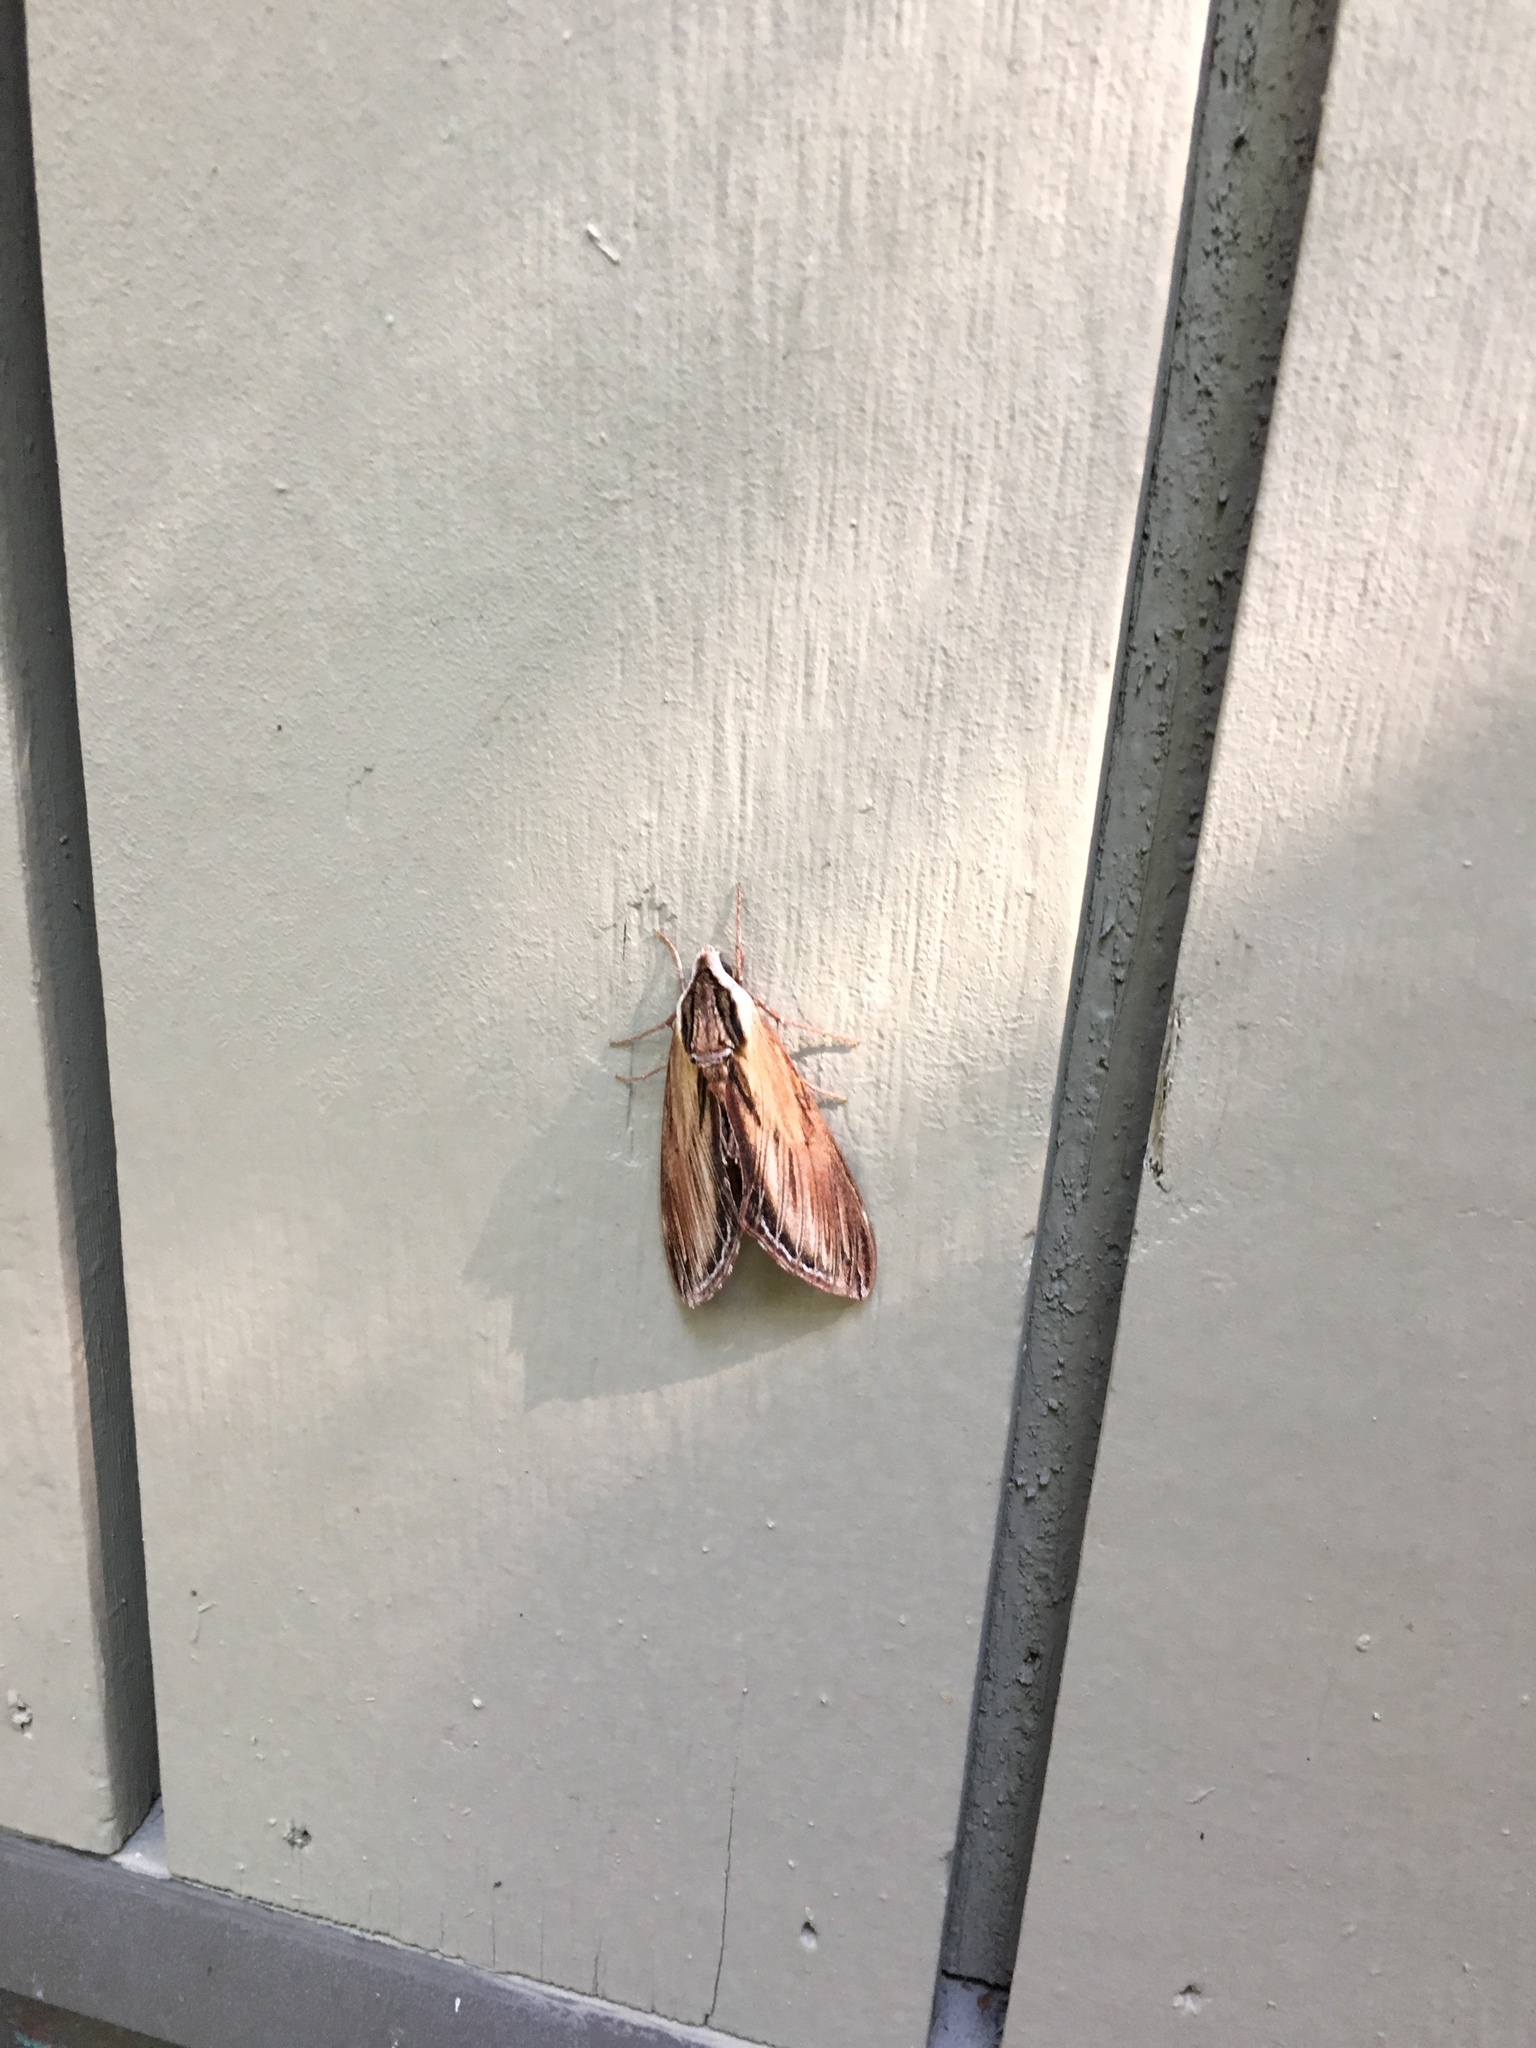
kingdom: Animalia
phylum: Arthropoda
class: Insecta
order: Lepidoptera
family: Sphingidae
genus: Sphinx
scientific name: Sphinx kalmiae
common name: Laurel sphinx
